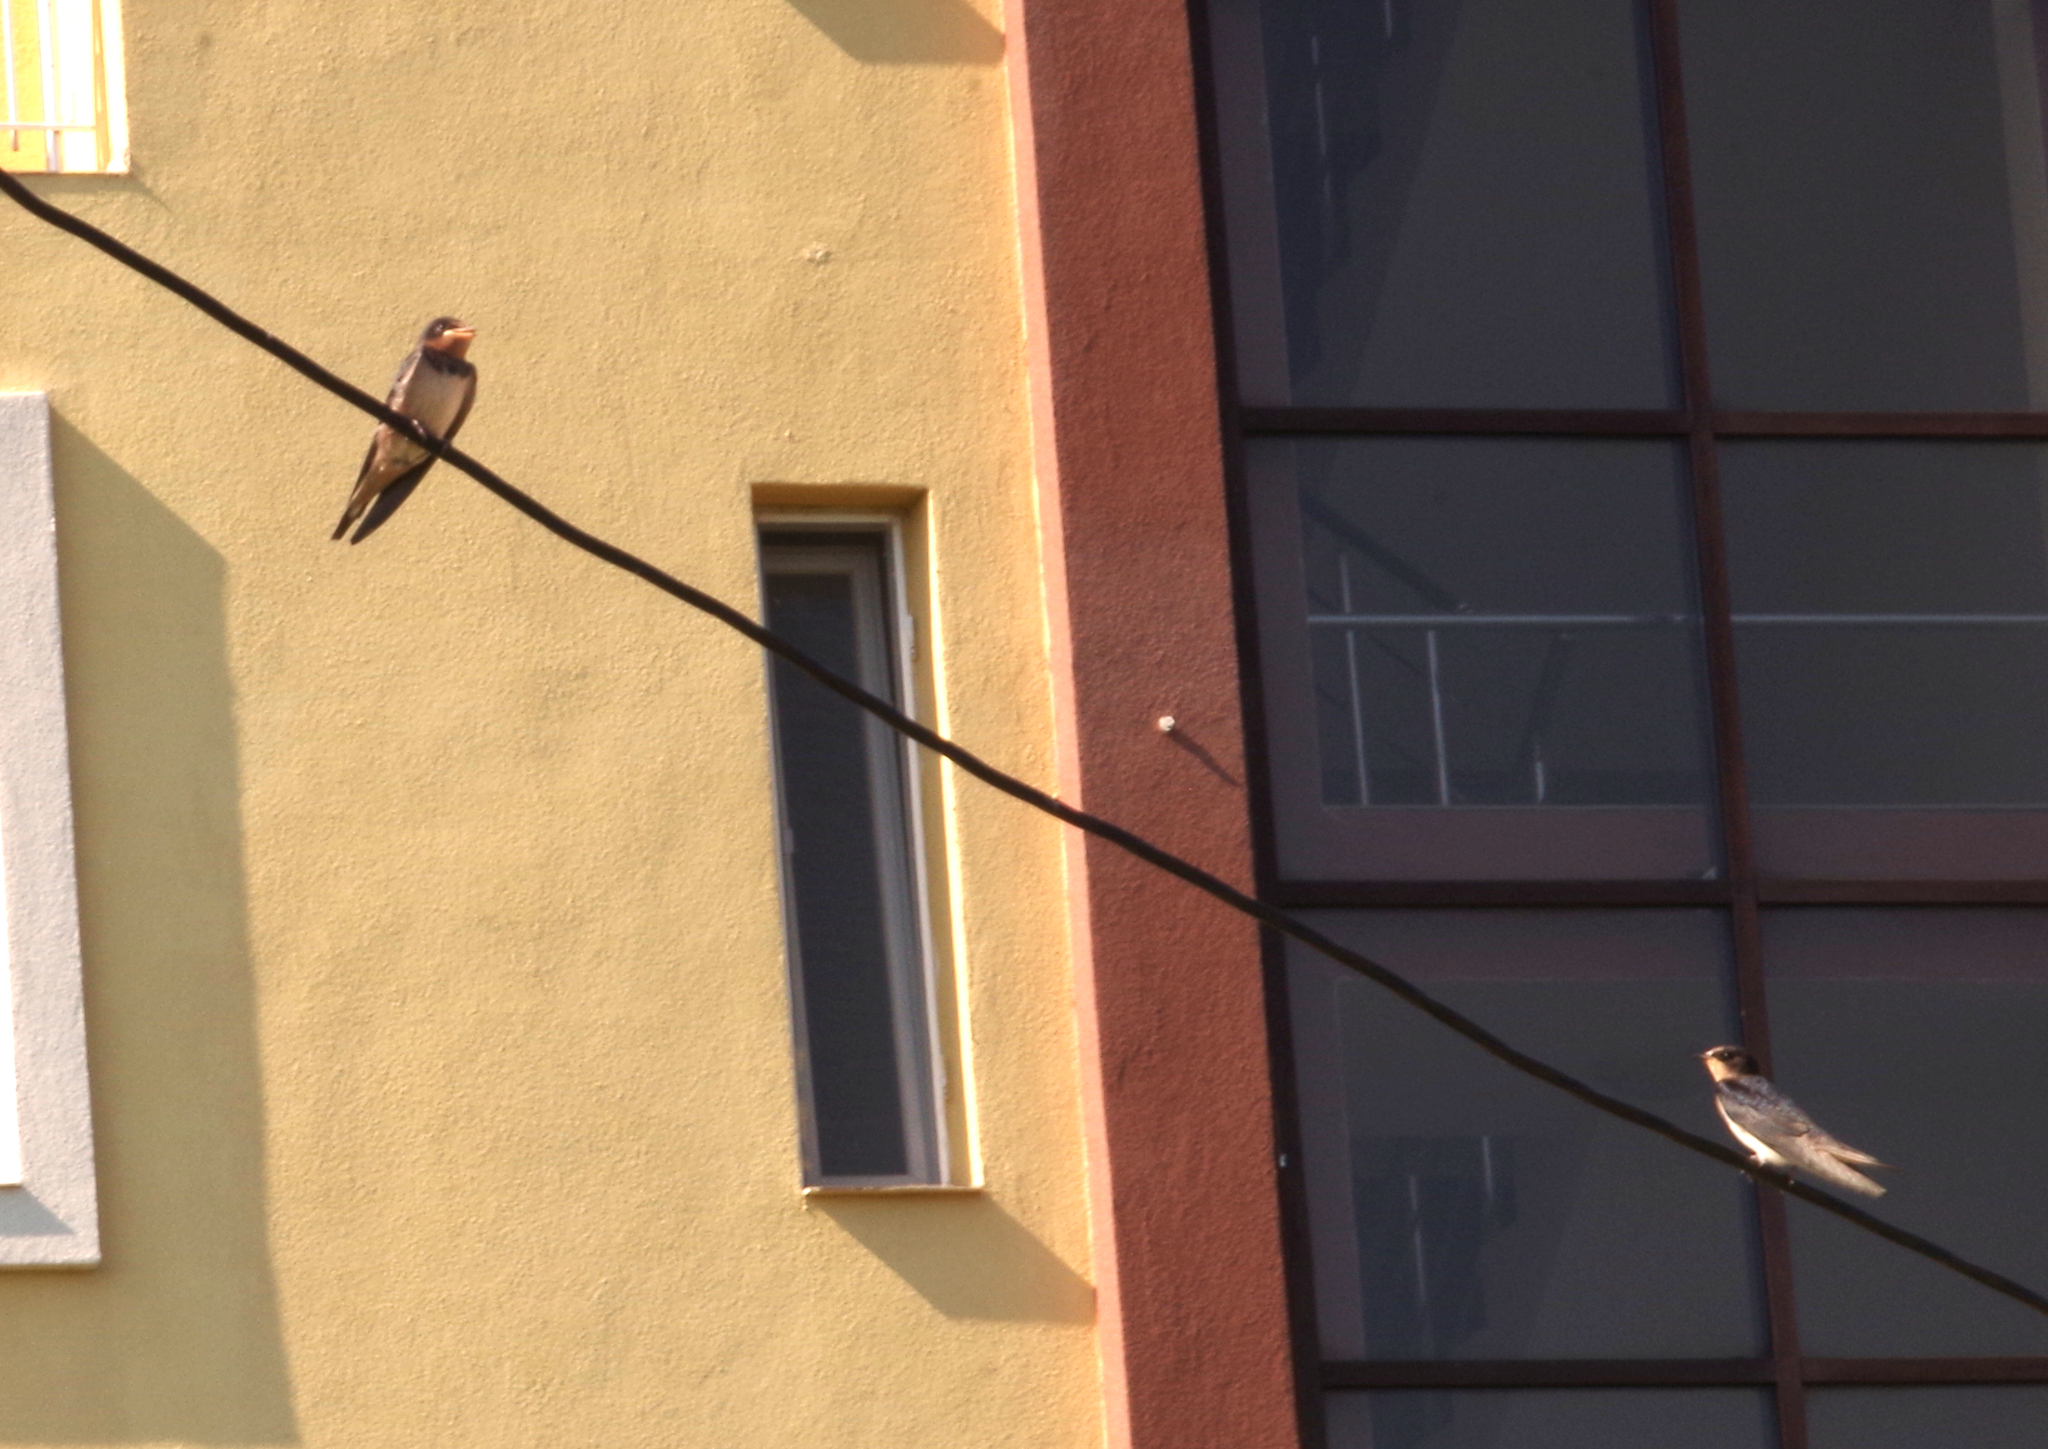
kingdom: Animalia
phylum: Chordata
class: Aves
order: Passeriformes
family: Hirundinidae
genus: Hirundo
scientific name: Hirundo rustica
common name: Barn swallow
